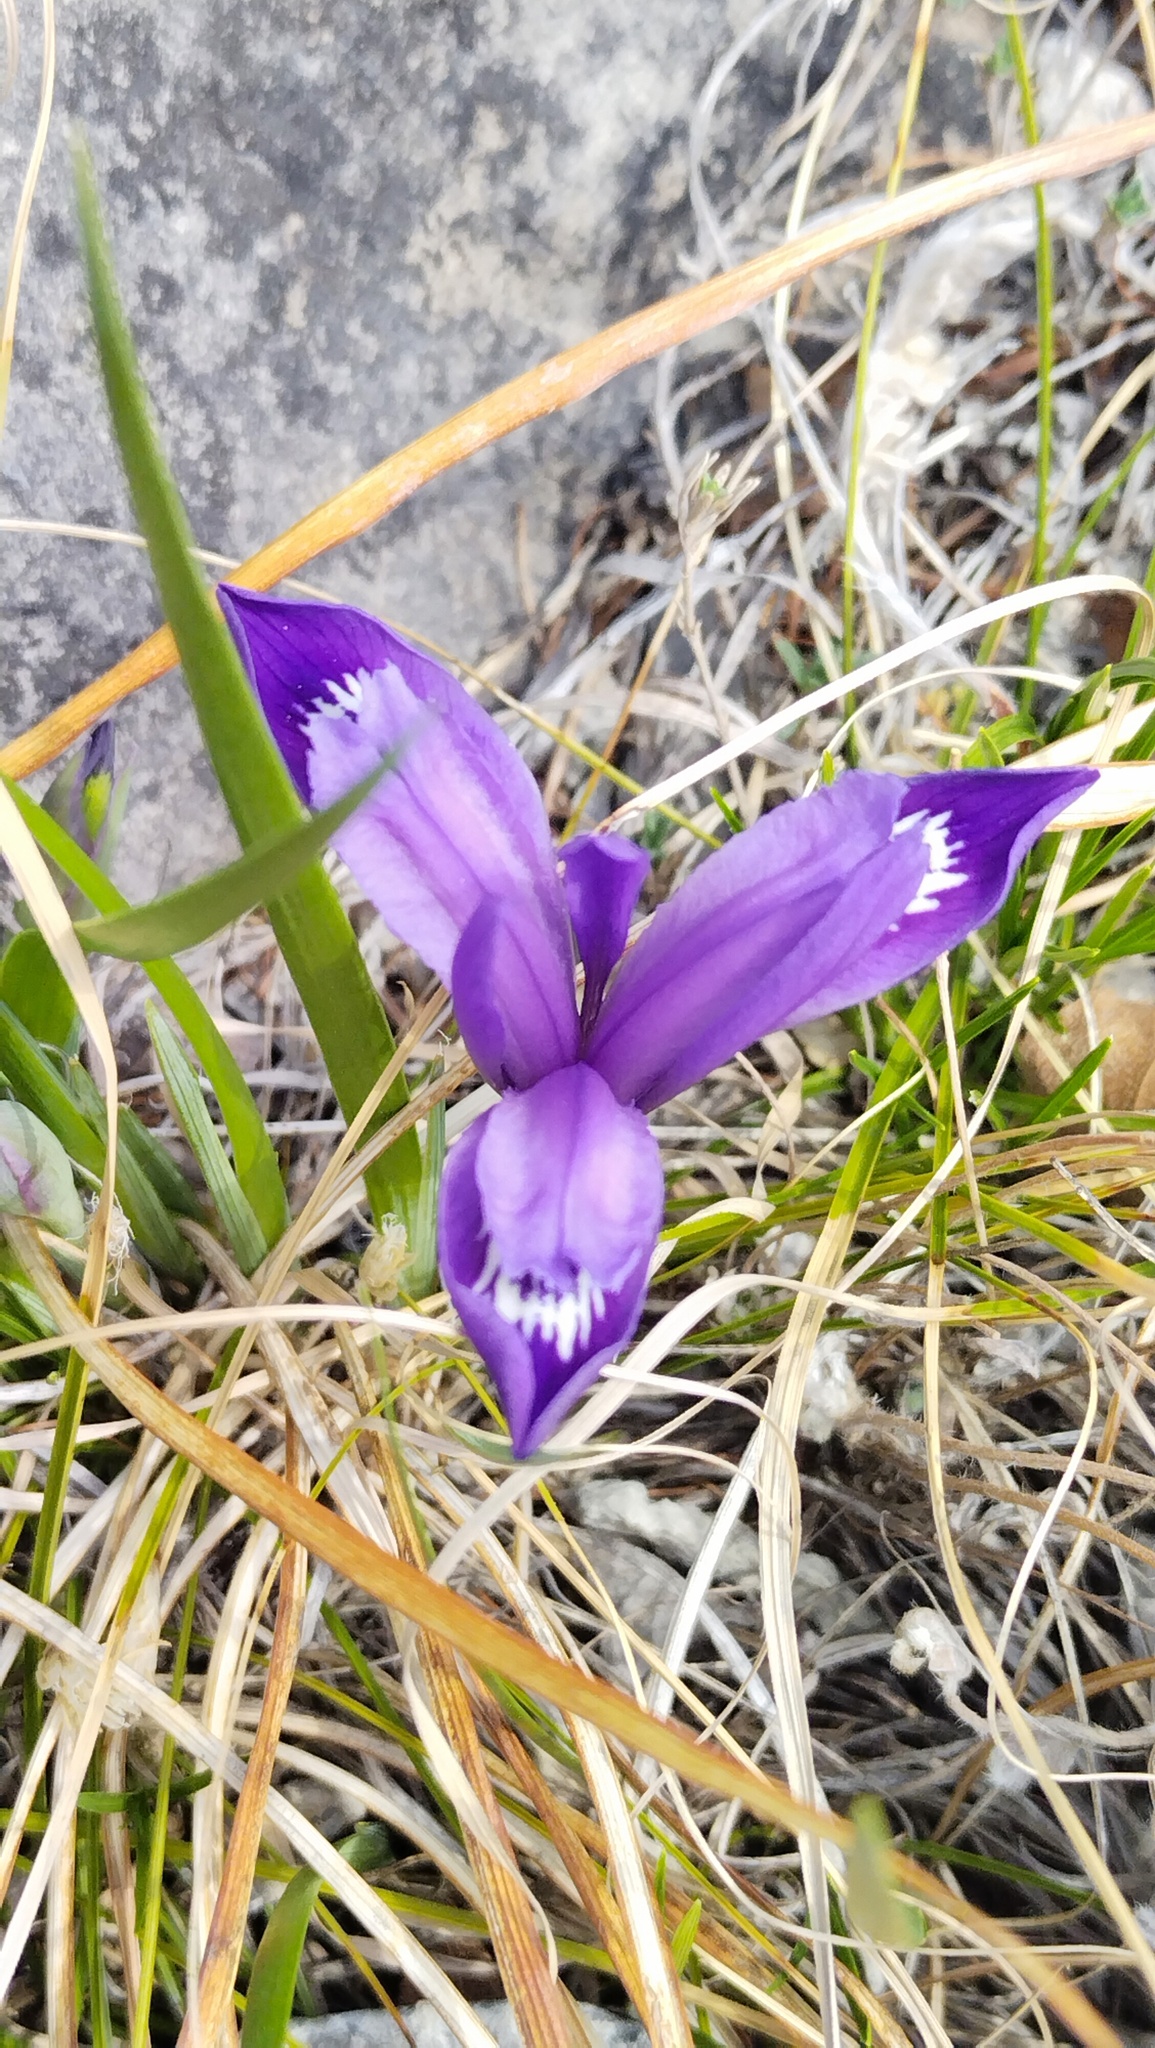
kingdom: Plantae
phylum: Tracheophyta
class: Liliopsida
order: Asparagales
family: Iridaceae
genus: Iris
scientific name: Iris ruthenica
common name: Purple-bract iris
